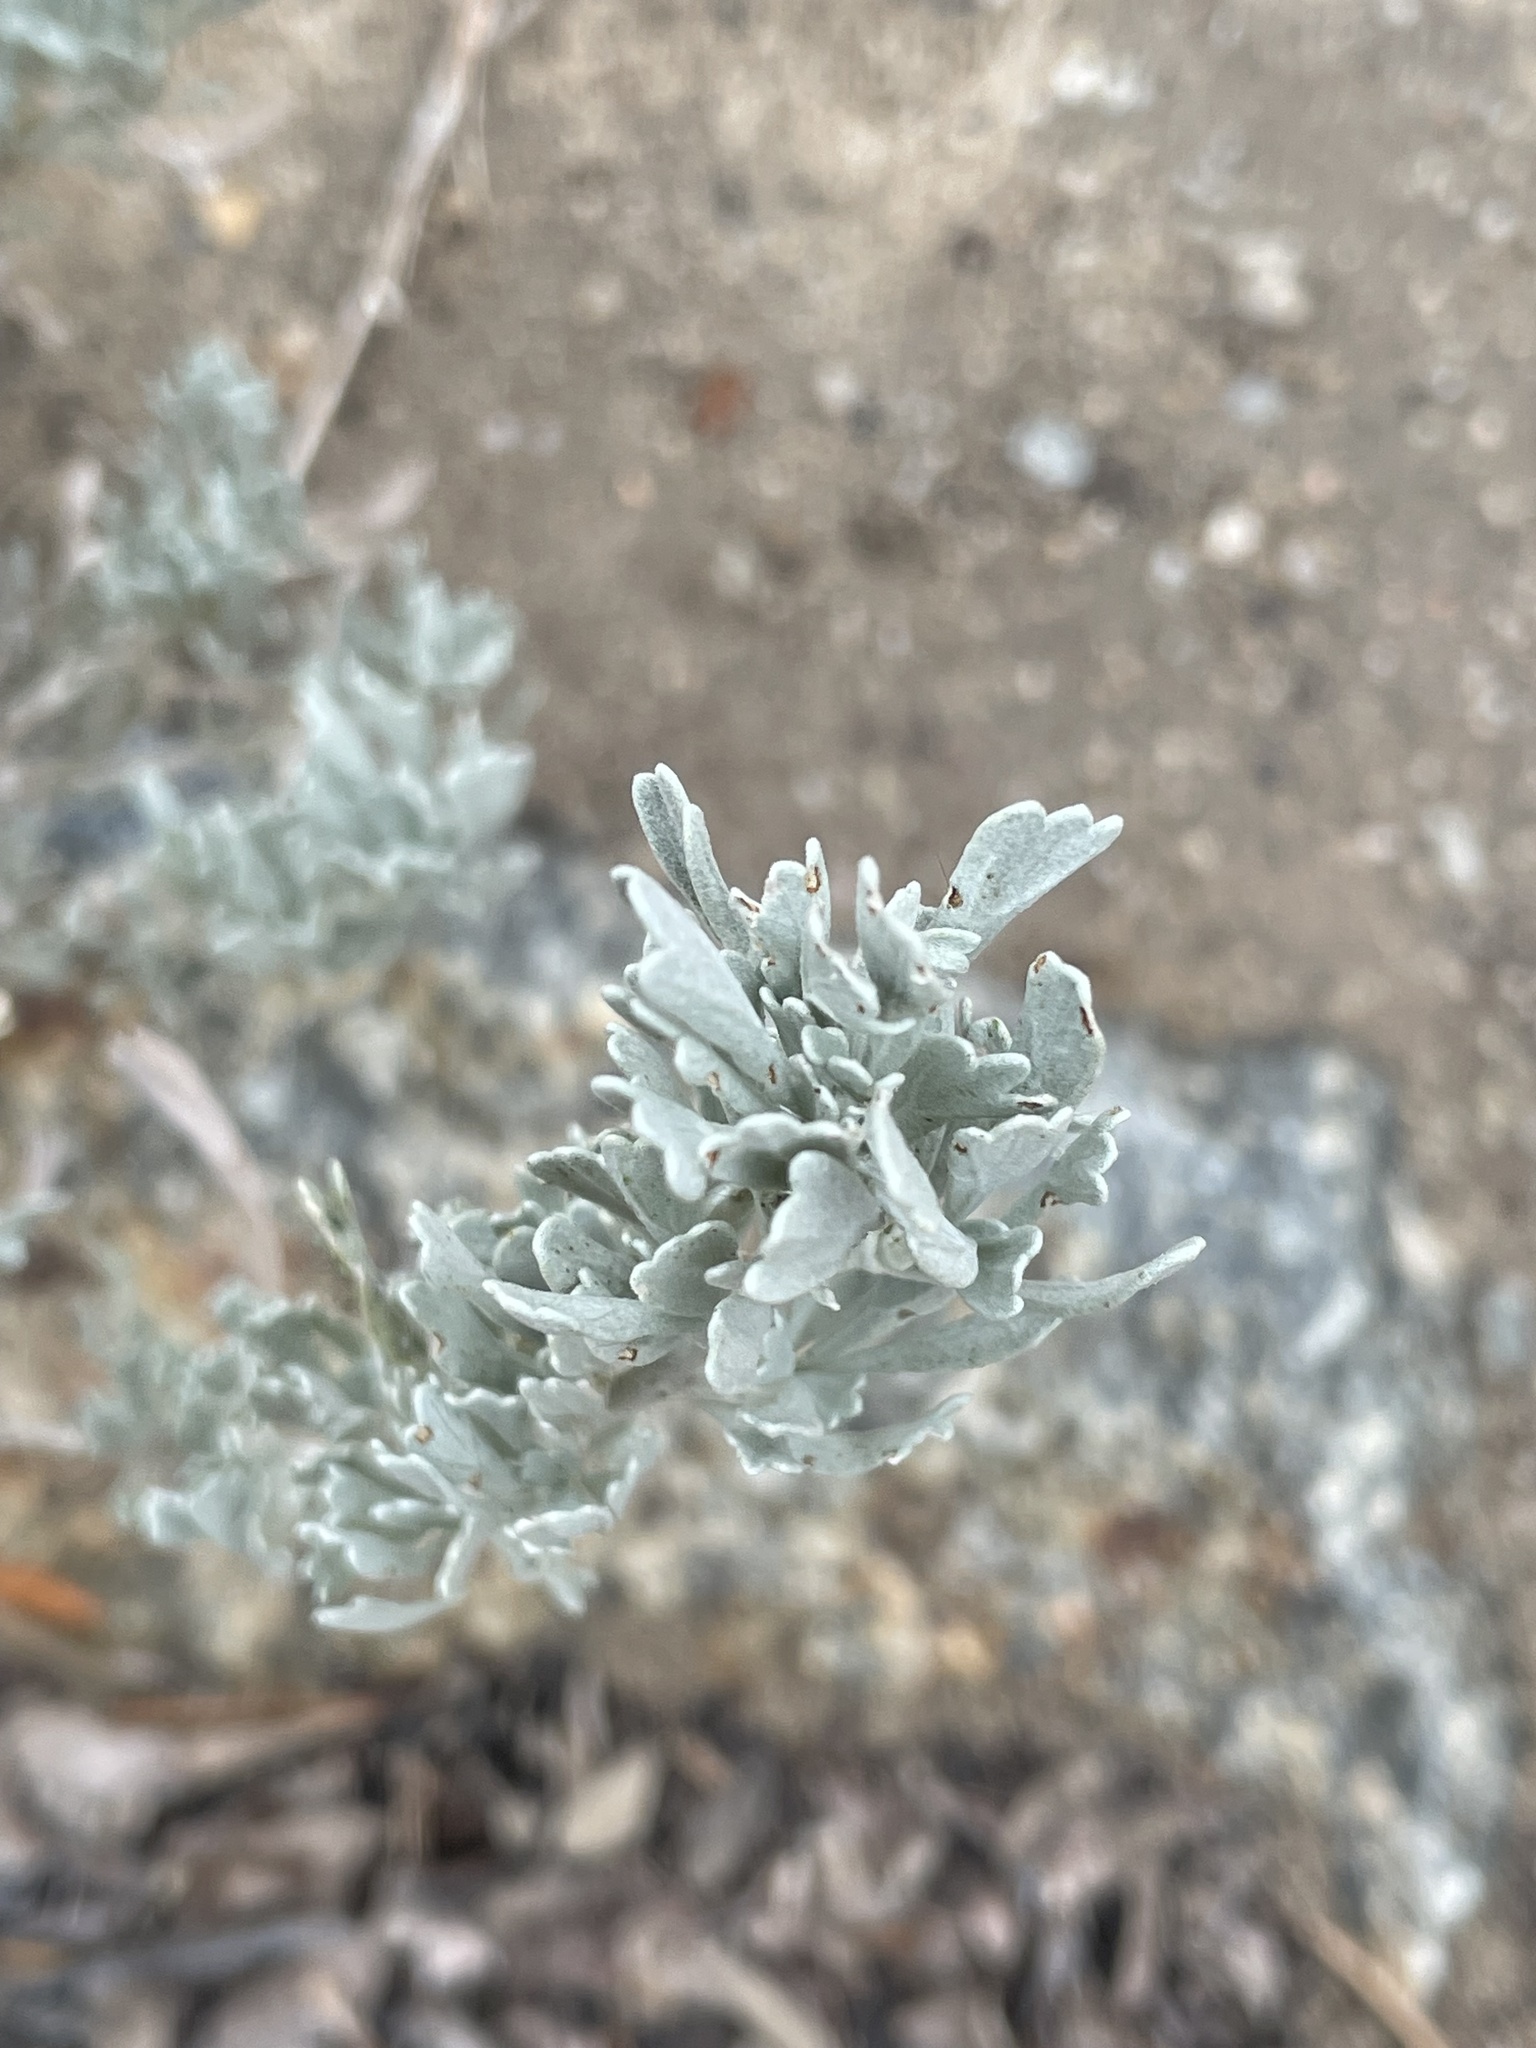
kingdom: Plantae
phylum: Tracheophyta
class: Magnoliopsida
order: Asterales
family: Asteraceae
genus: Artemisia
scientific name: Artemisia tridentata
